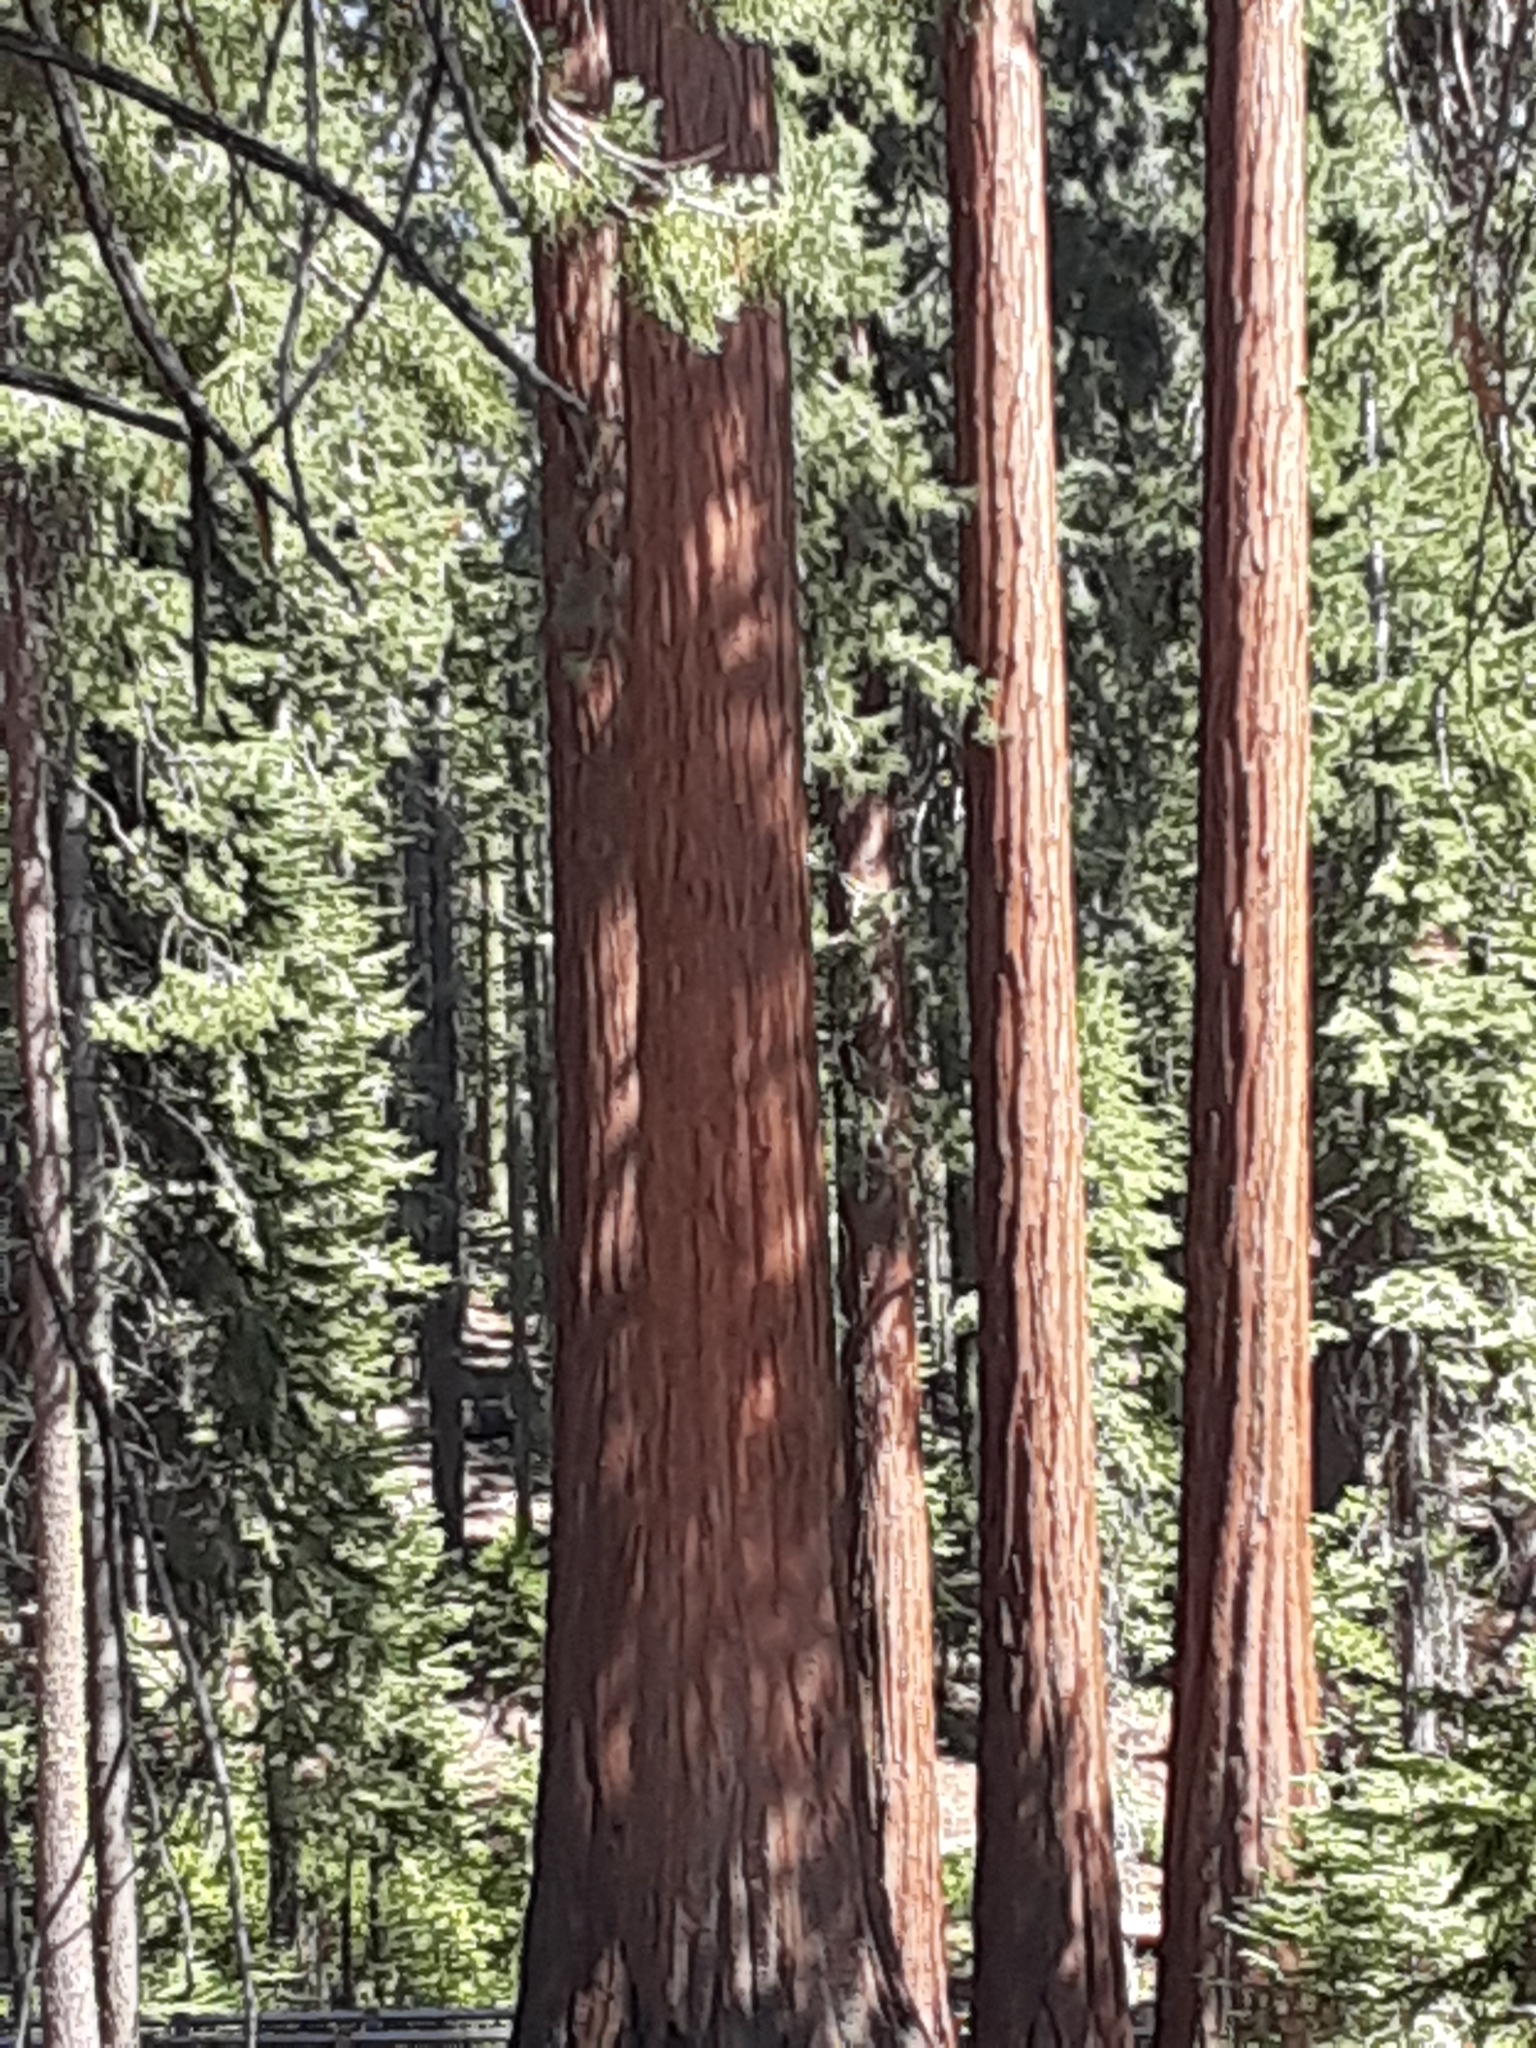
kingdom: Plantae
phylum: Tracheophyta
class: Pinopsida
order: Pinales
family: Cupressaceae
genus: Sequoiadendron
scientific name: Sequoiadendron giganteum
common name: Wellingtonia
